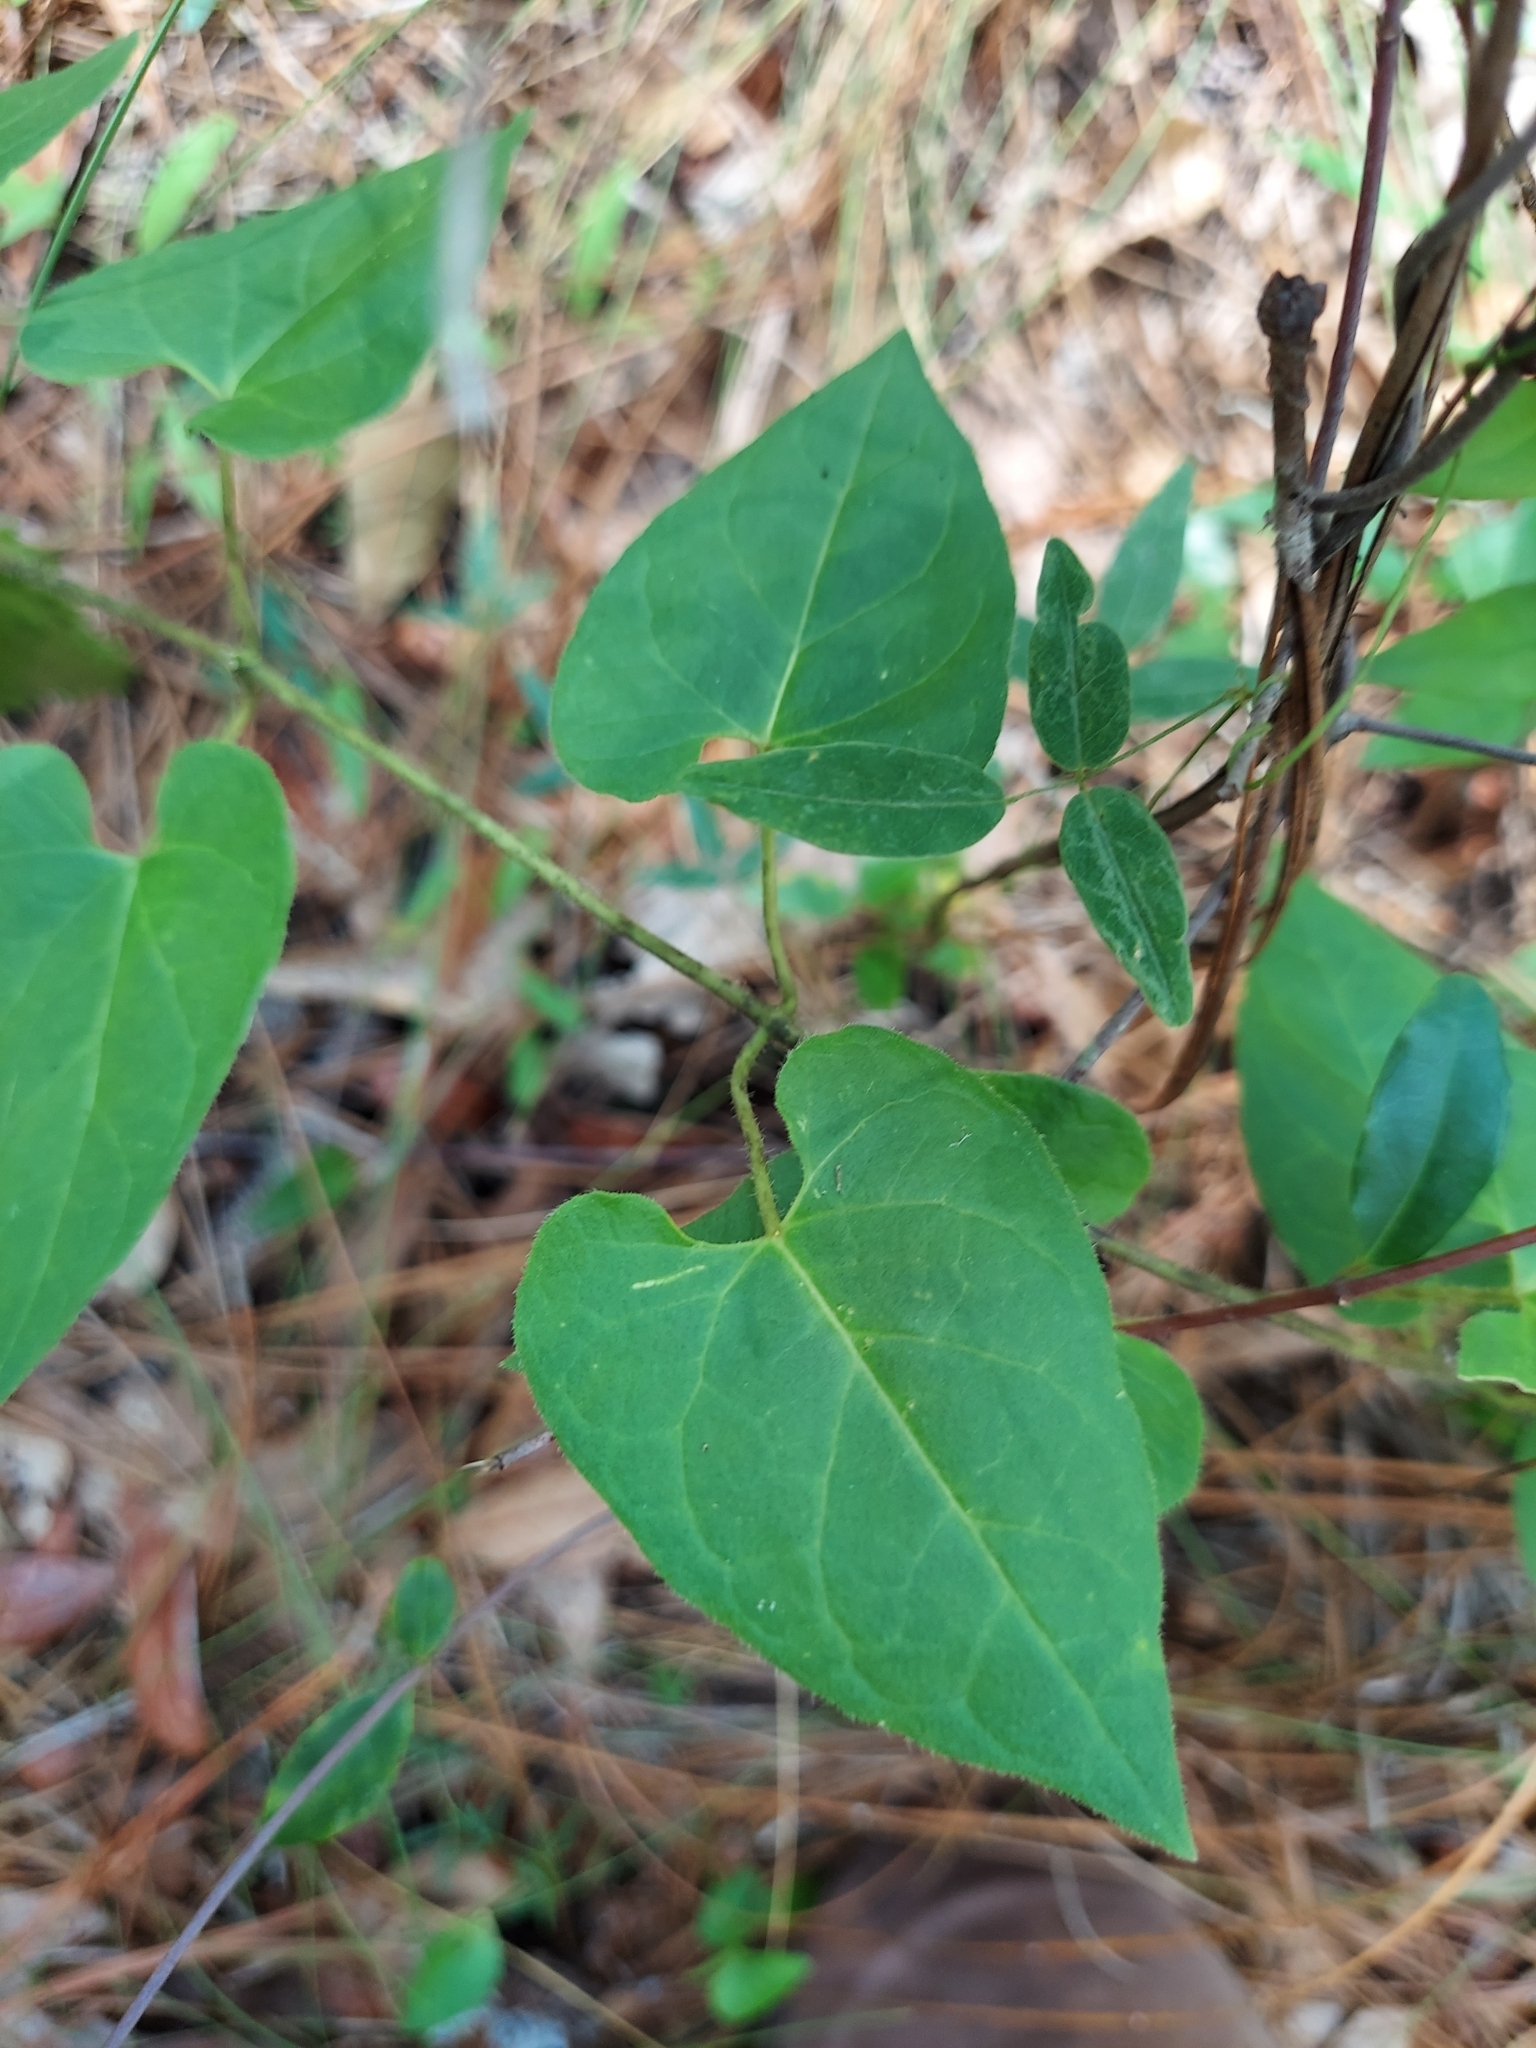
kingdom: Plantae
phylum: Tracheophyta
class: Magnoliopsida
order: Gentianales
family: Apocynaceae
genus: Matelea
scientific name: Matelea floridana
